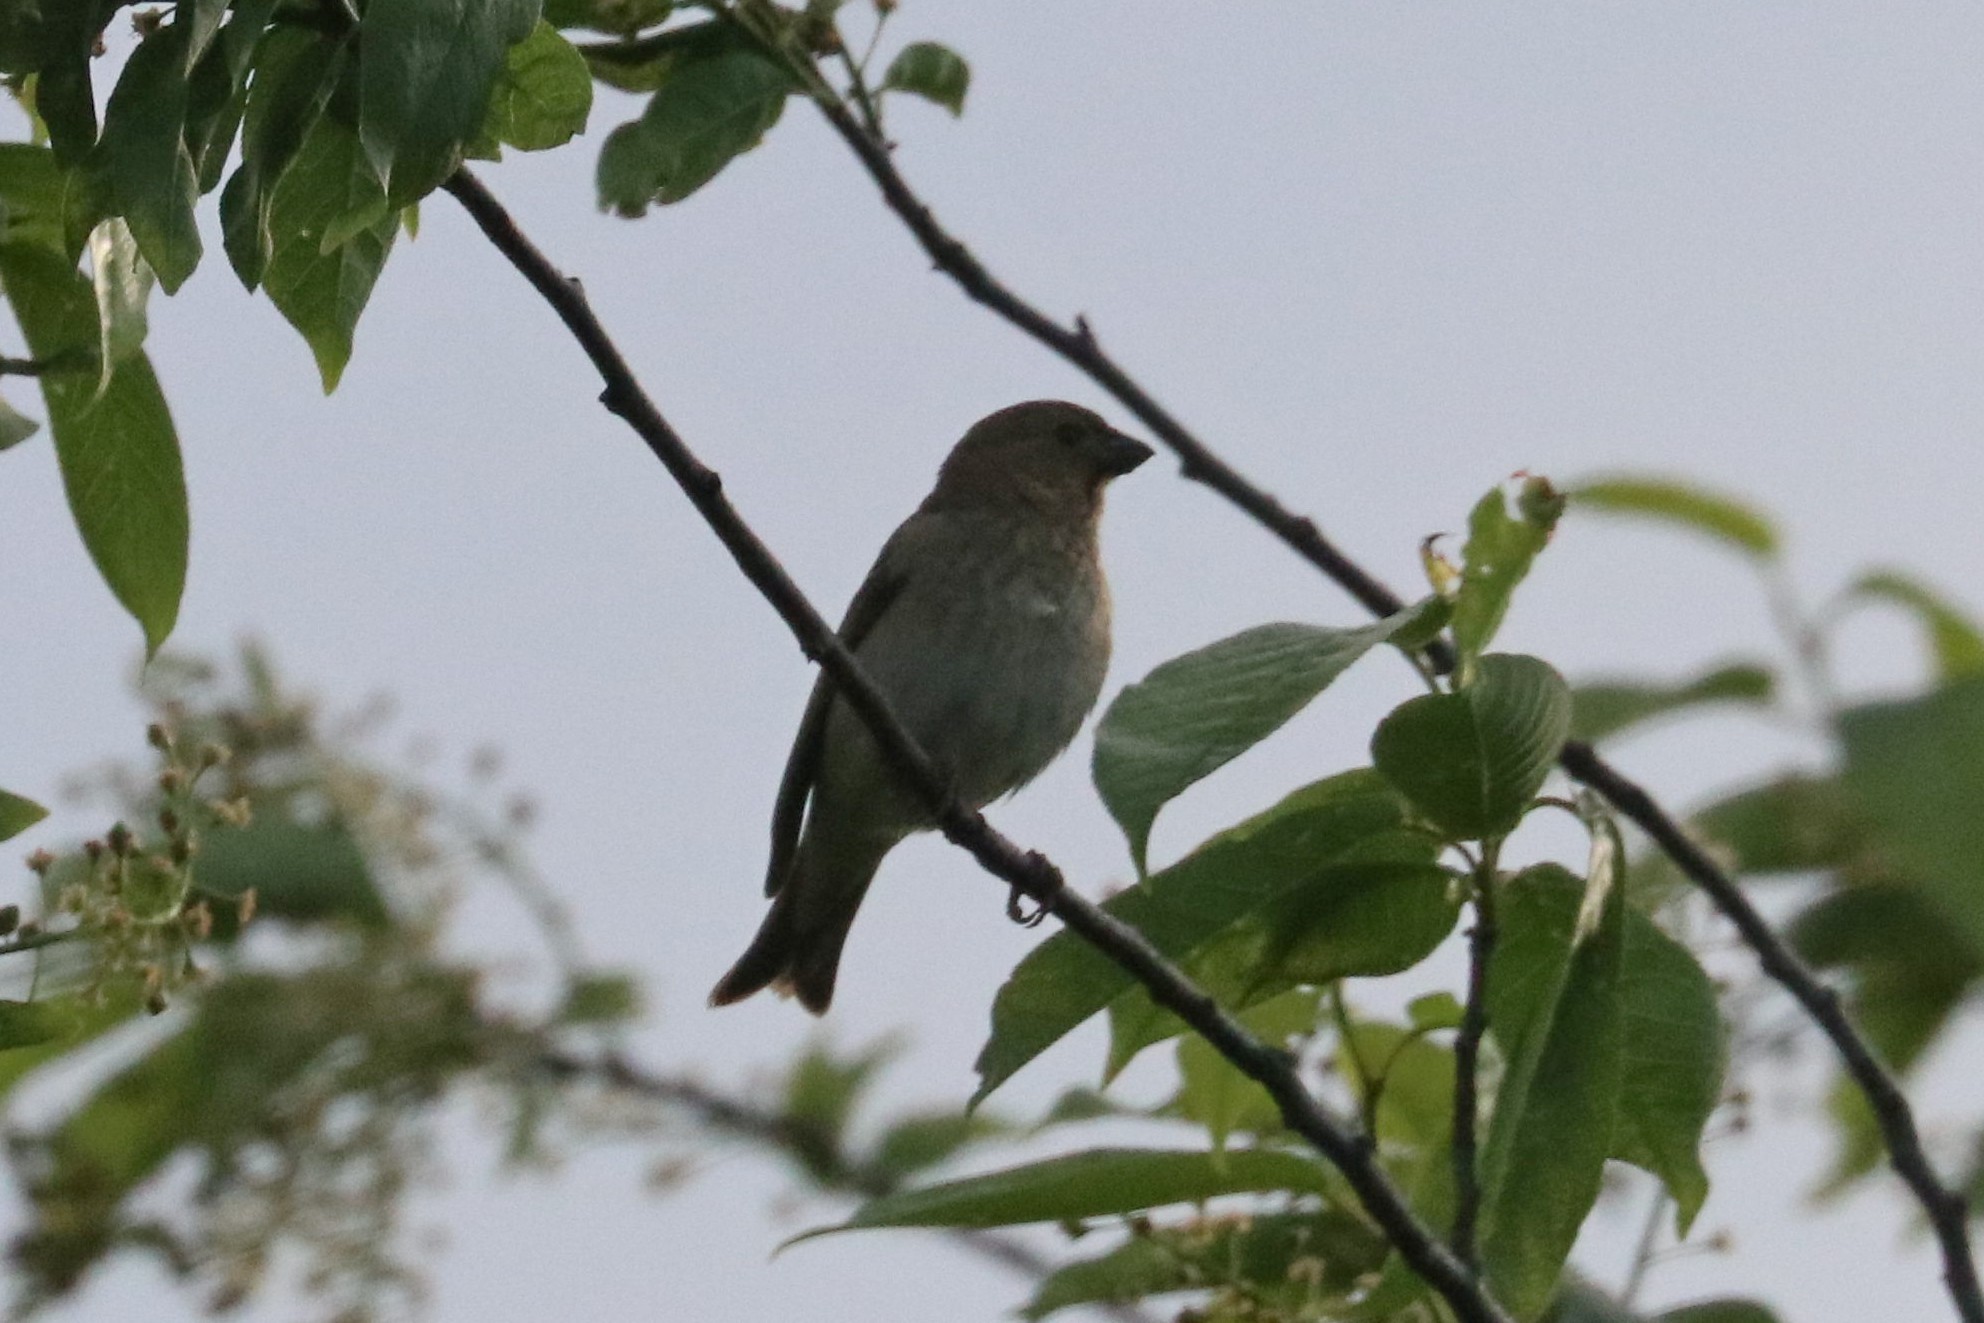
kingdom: Animalia
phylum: Chordata
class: Aves
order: Passeriformes
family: Fringillidae
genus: Carpodacus
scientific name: Carpodacus erythrinus
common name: Common rosefinch
